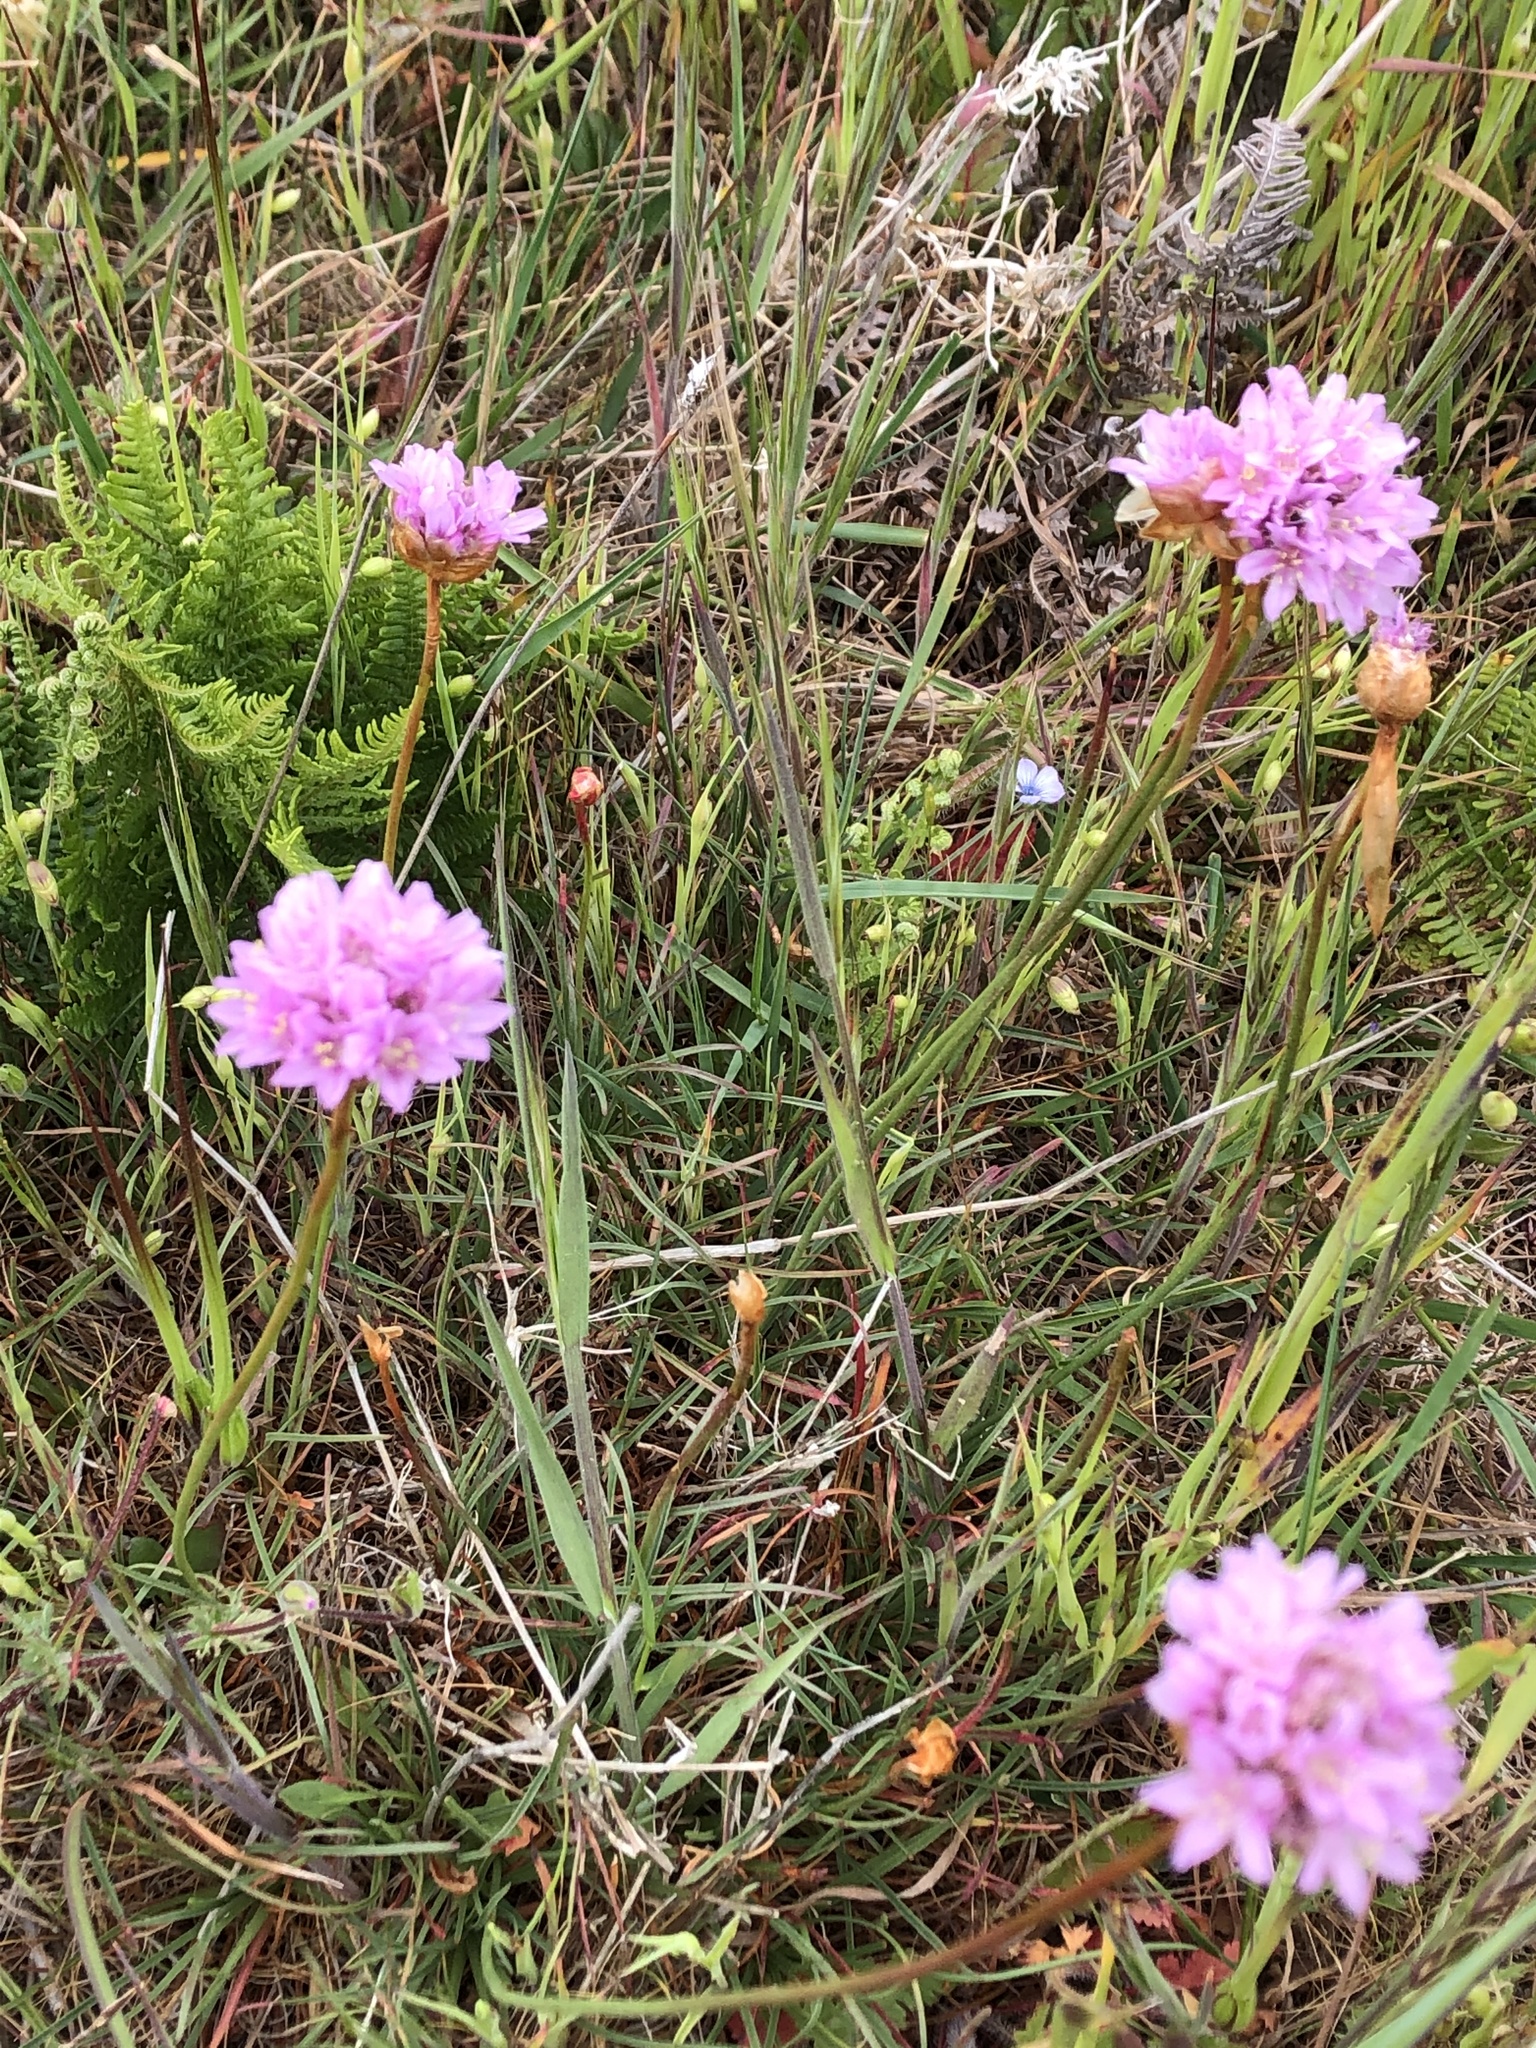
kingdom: Plantae
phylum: Tracheophyta
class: Magnoliopsida
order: Caryophyllales
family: Plumbaginaceae
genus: Armeria
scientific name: Armeria maritima
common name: Thrift
